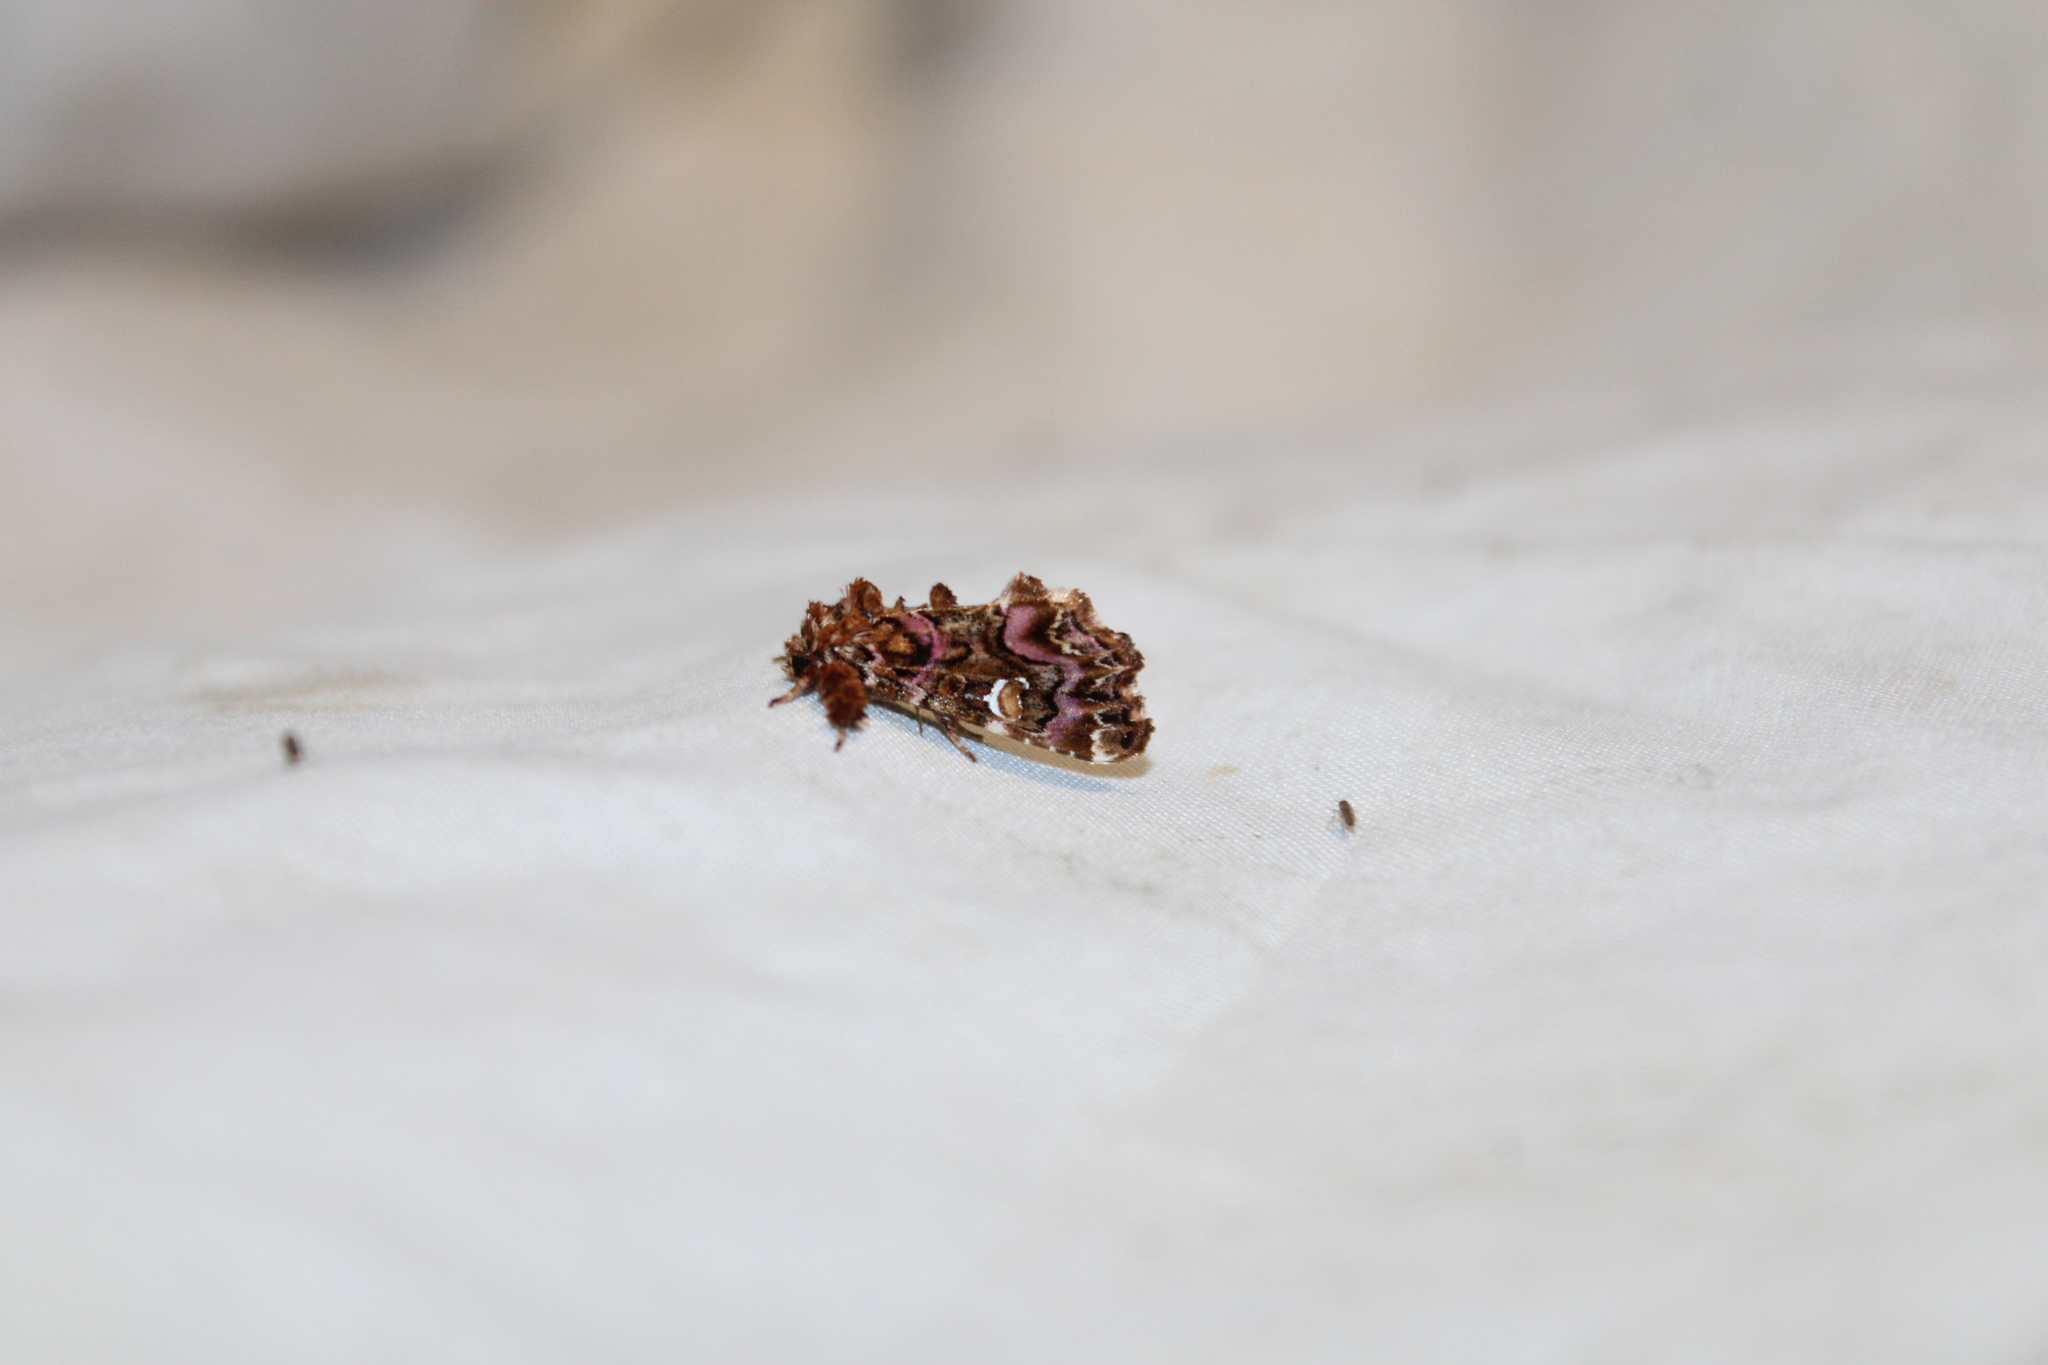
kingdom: Animalia
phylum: Arthropoda
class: Insecta
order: Lepidoptera
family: Noctuidae
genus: Callopistria
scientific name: Callopistria mollissima
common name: Pink-shaded fern moth
